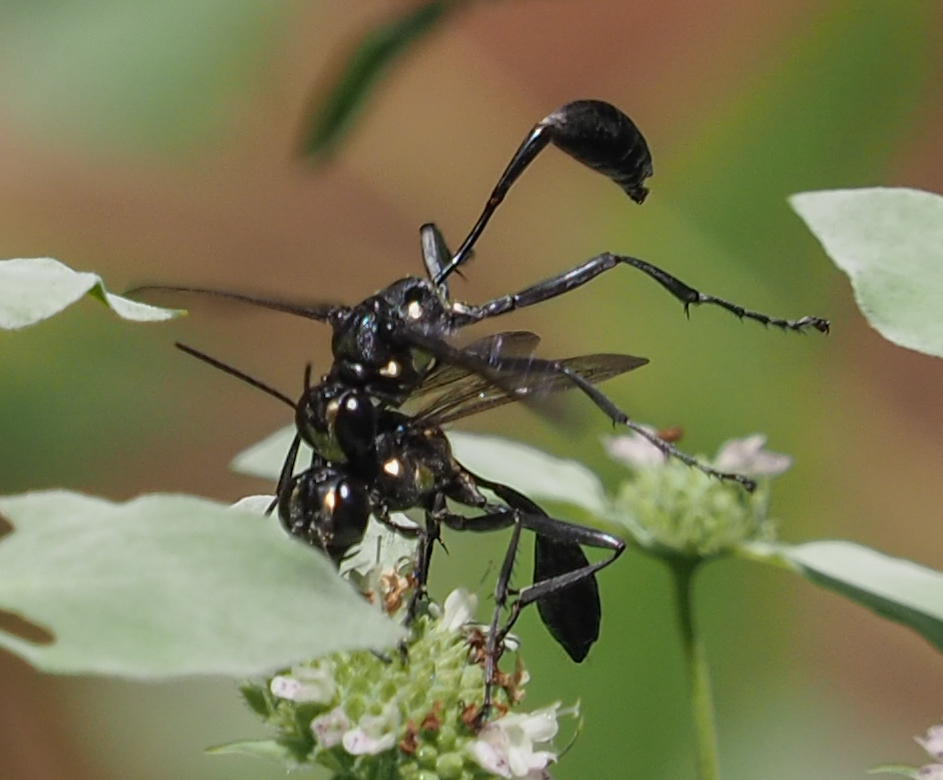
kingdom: Animalia
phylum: Arthropoda
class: Insecta
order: Hymenoptera
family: Sphecidae
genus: Eremnophila
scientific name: Eremnophila aureonotata
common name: Gold-marked thread-waisted wasp
